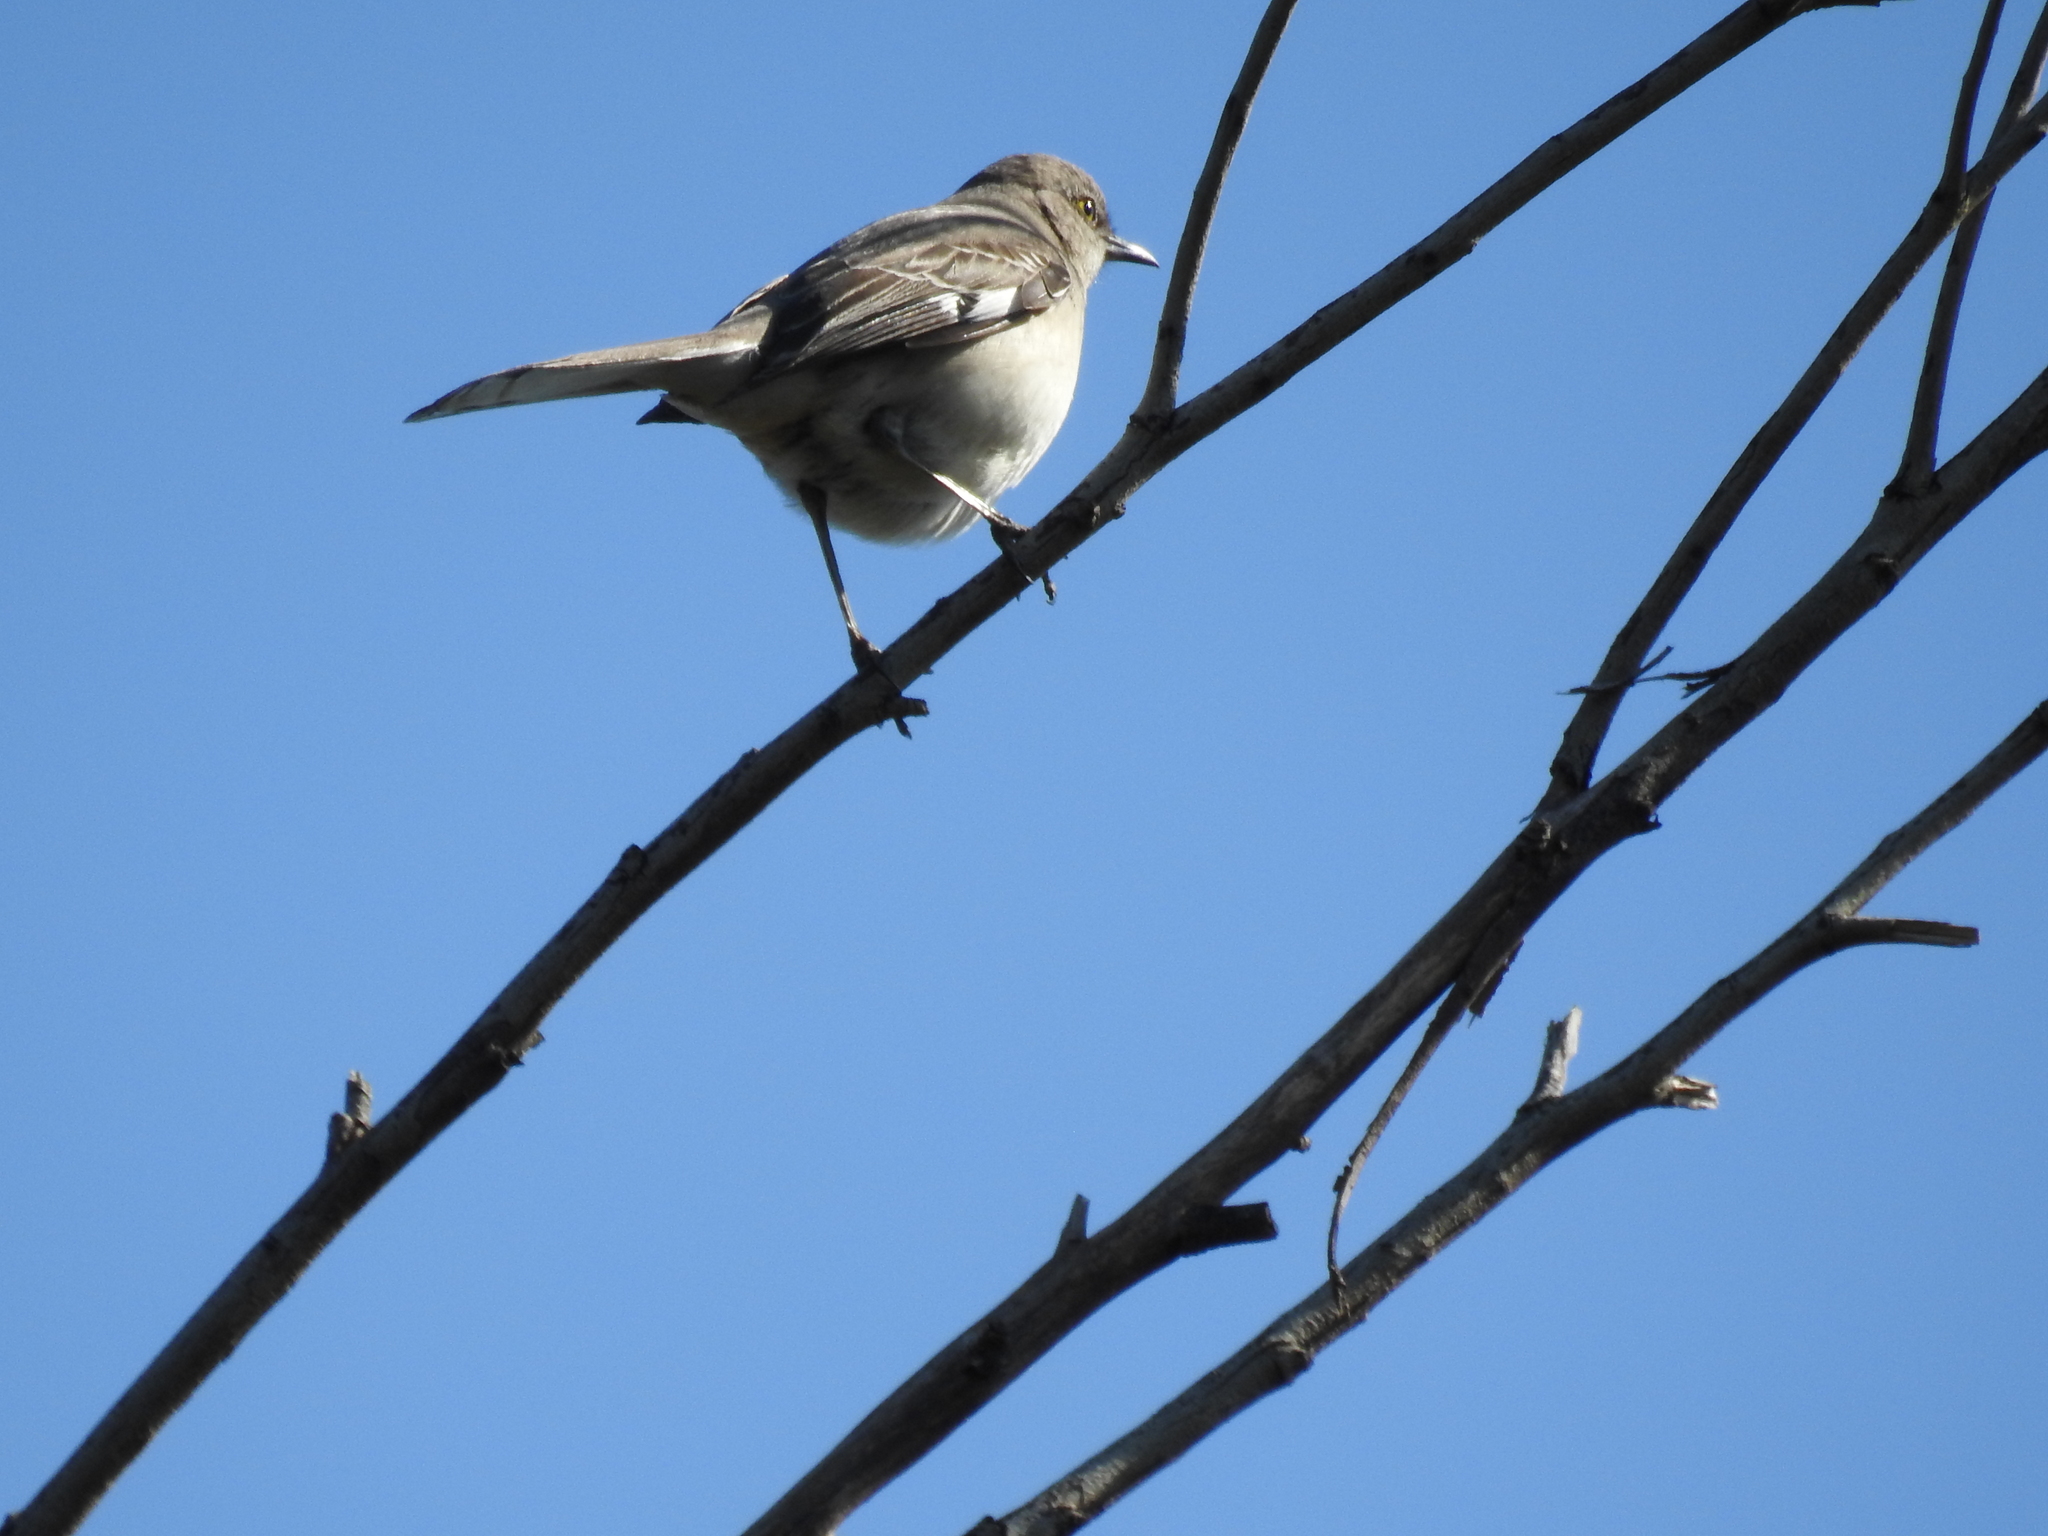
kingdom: Animalia
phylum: Chordata
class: Aves
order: Passeriformes
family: Mimidae
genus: Mimus
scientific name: Mimus polyglottos
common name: Northern mockingbird
